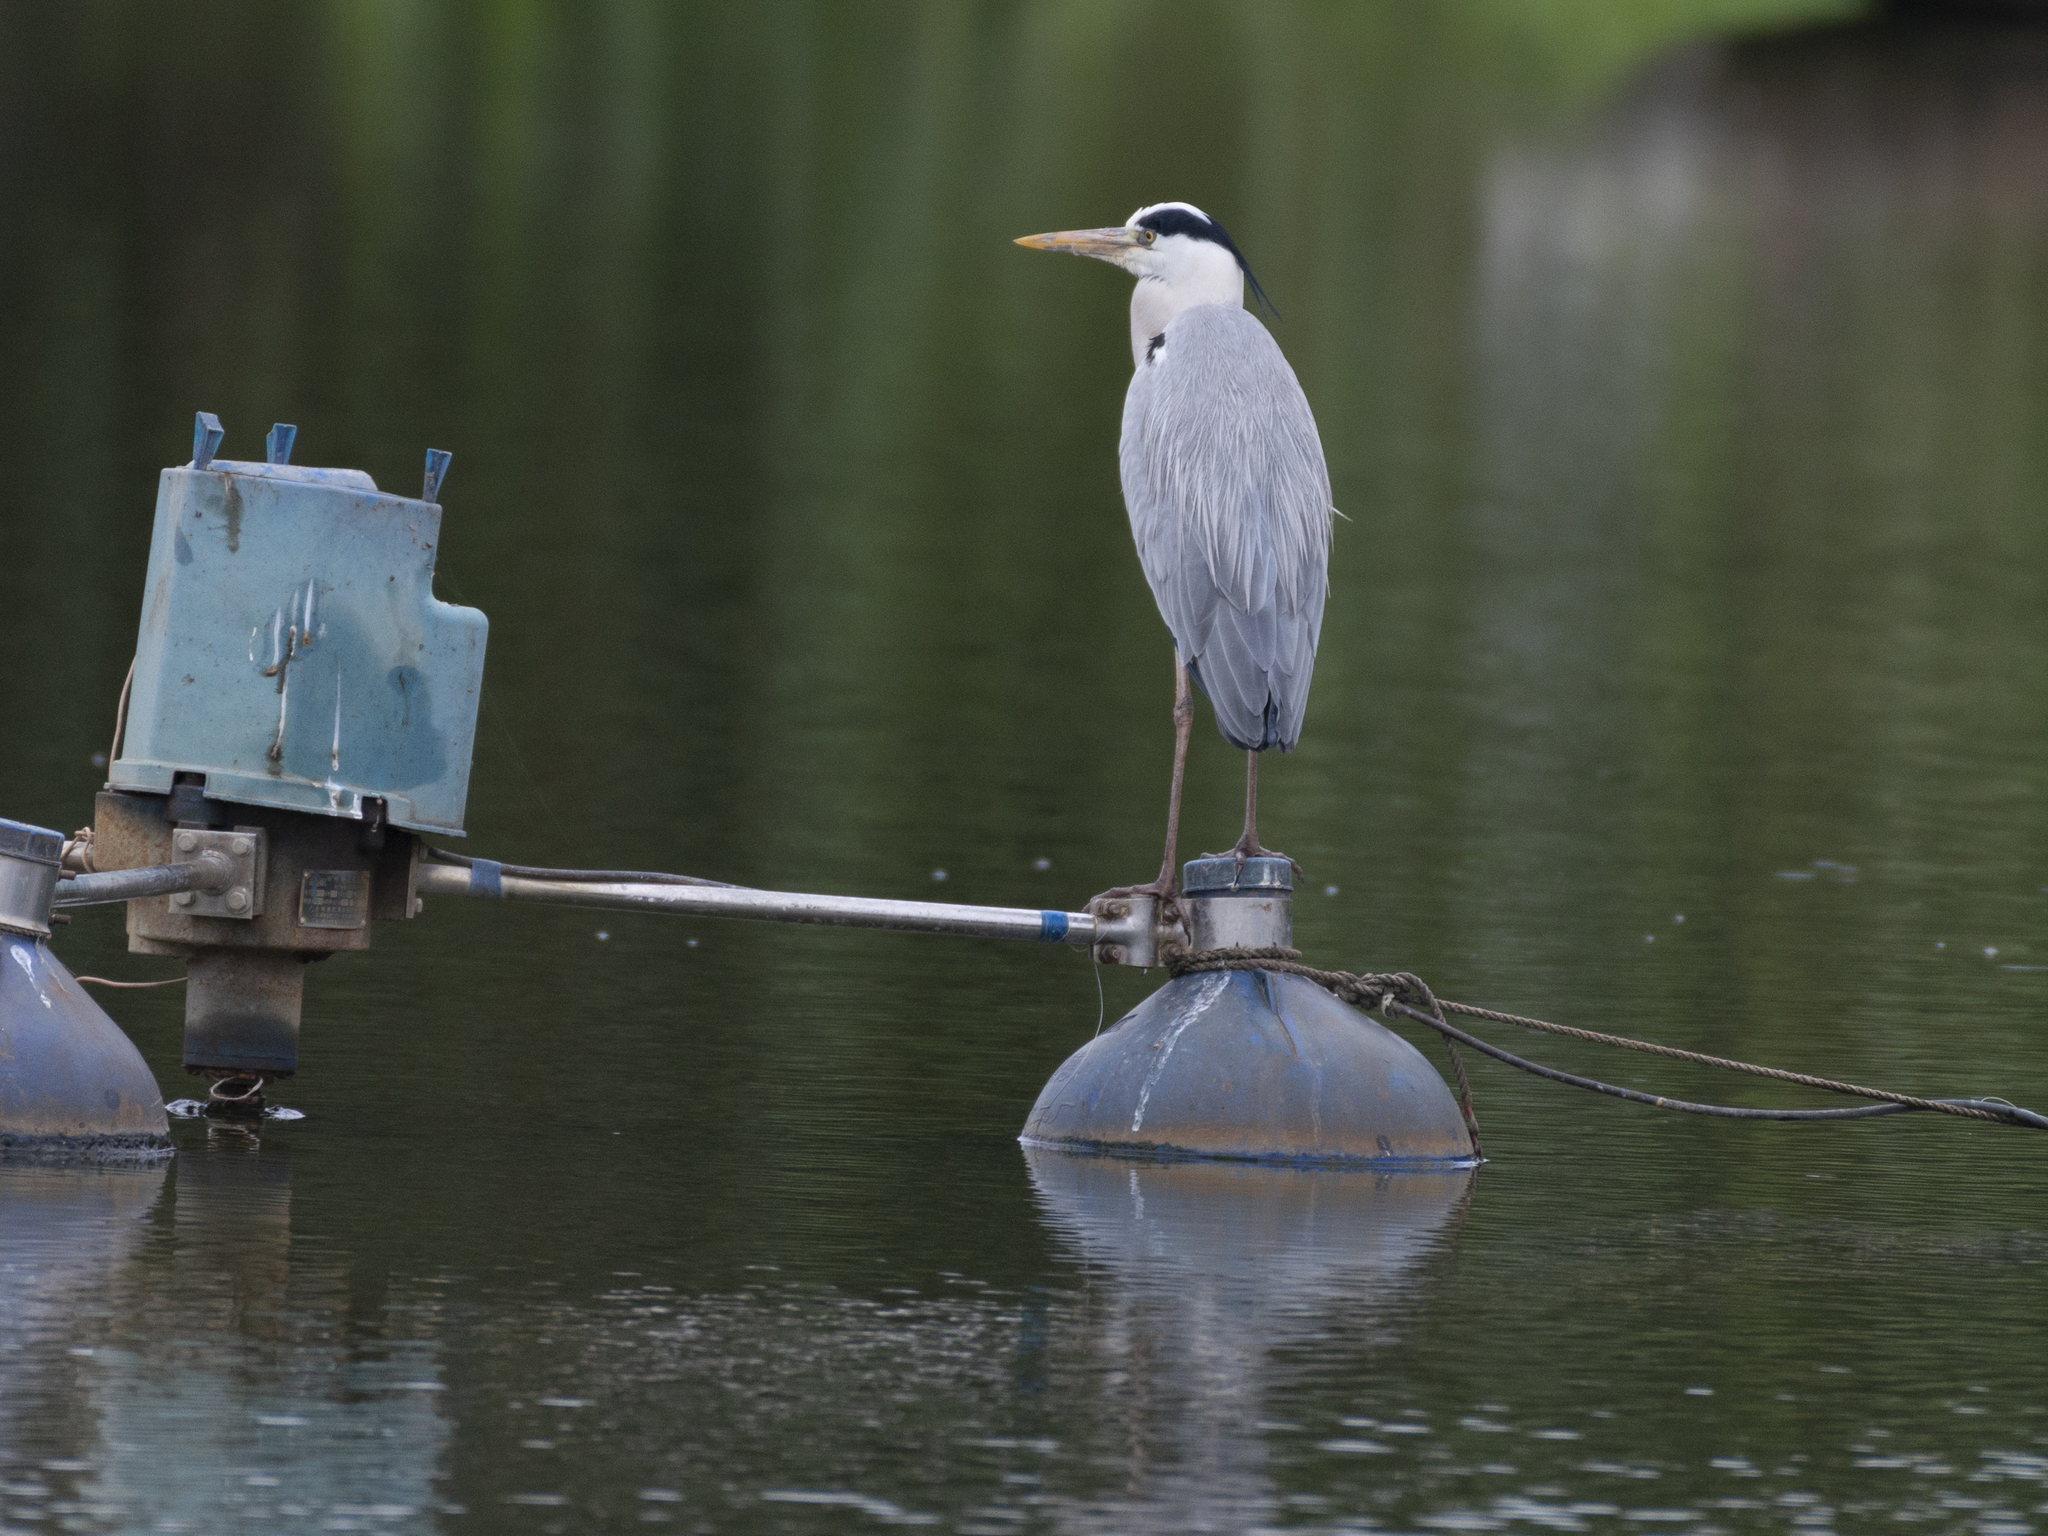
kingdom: Animalia
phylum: Chordata
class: Aves
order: Pelecaniformes
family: Ardeidae
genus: Ardea
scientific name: Ardea cinerea
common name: Grey heron
